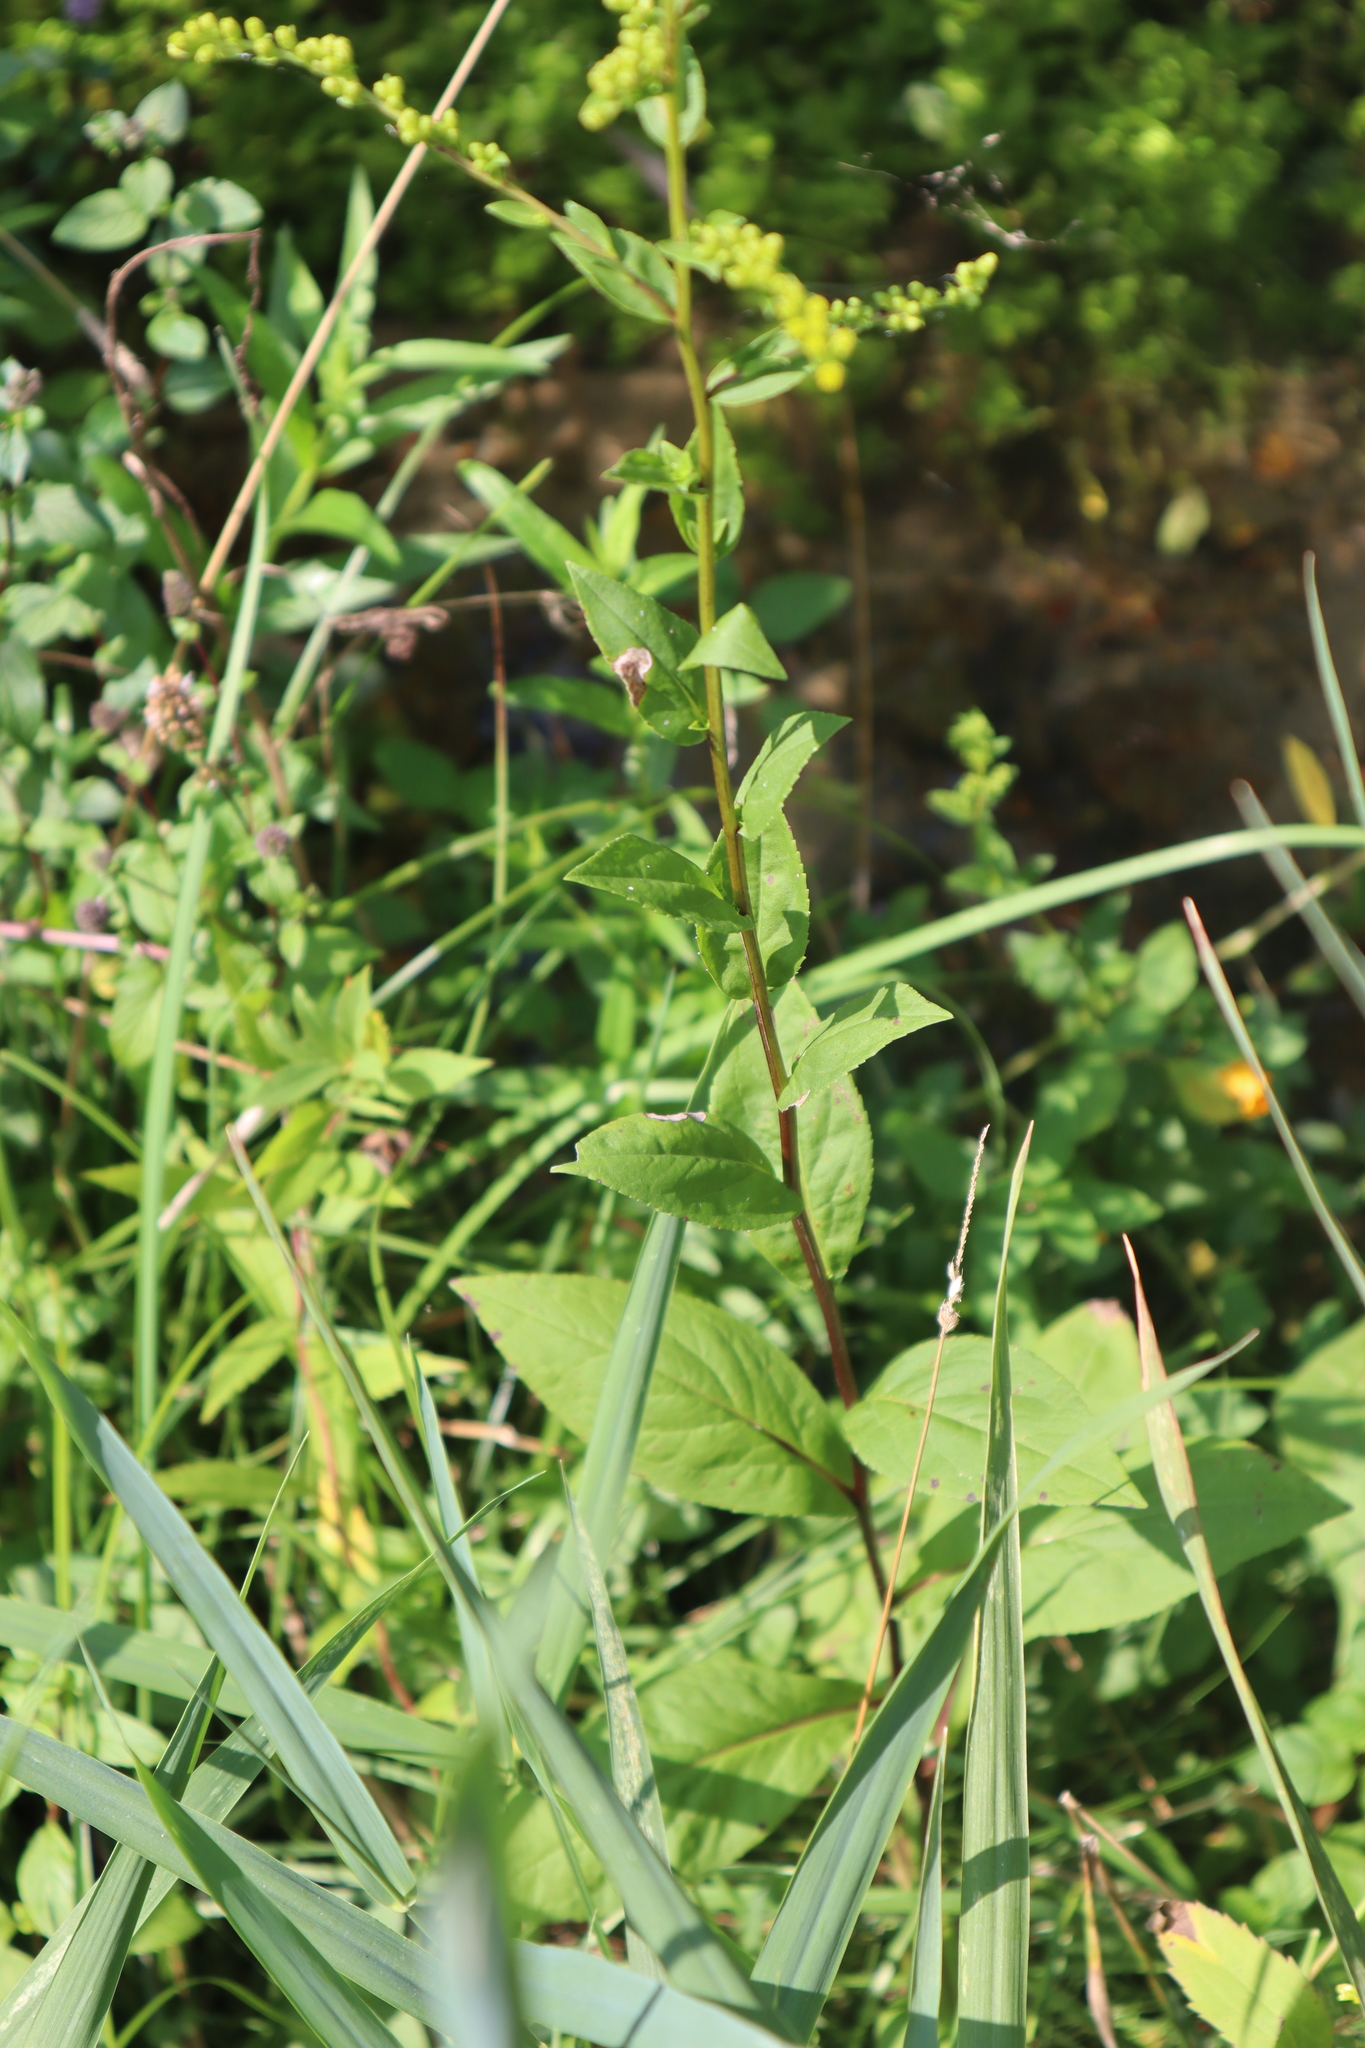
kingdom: Plantae
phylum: Tracheophyta
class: Magnoliopsida
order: Asterales
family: Asteraceae
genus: Solidago
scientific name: Solidago patula
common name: Rough-leaf goldenrod
